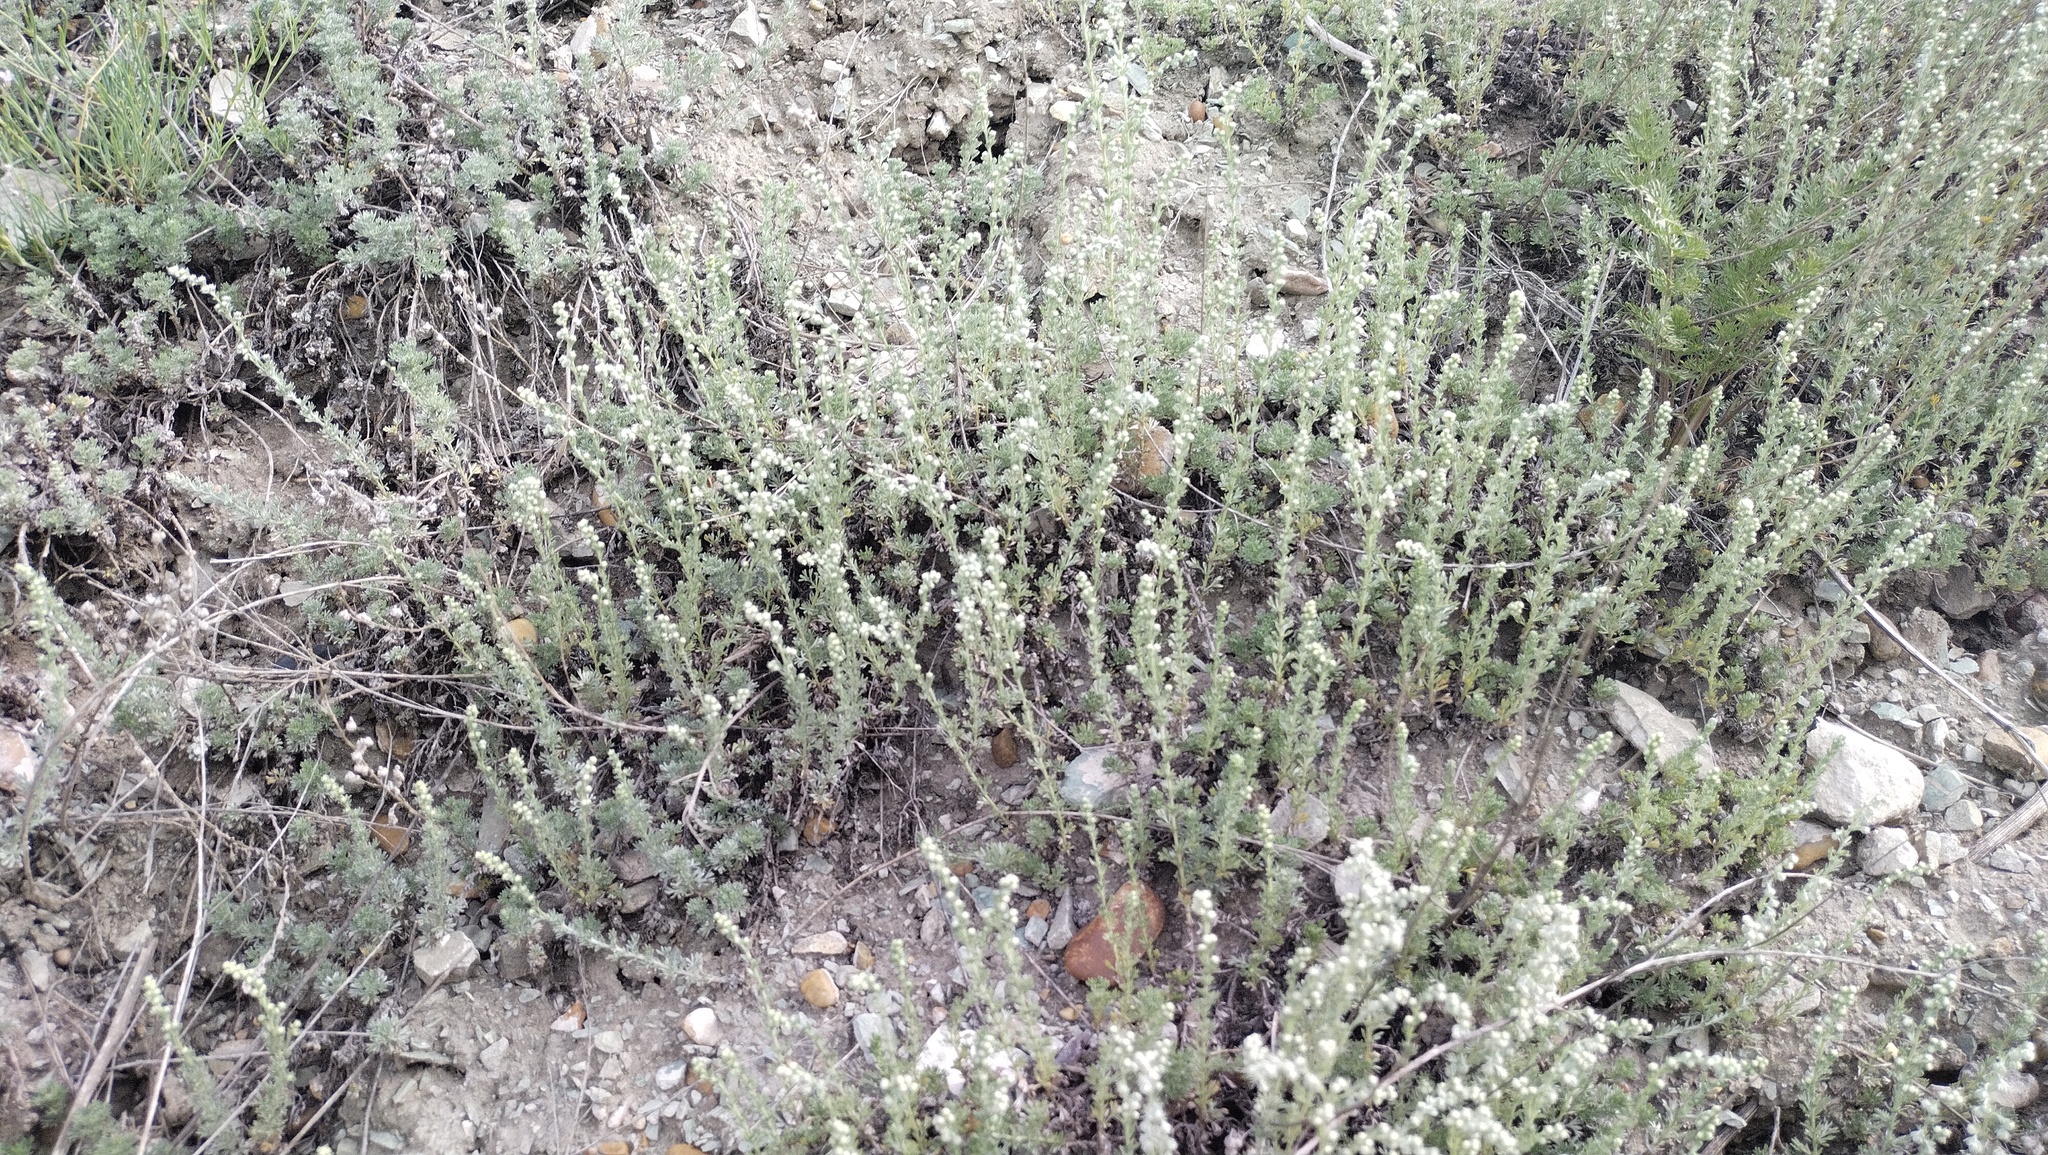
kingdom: Plantae
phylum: Tracheophyta
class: Magnoliopsida
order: Asterales
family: Asteraceae
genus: Artemisia
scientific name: Artemisia frigida
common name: Prairie sagewort
